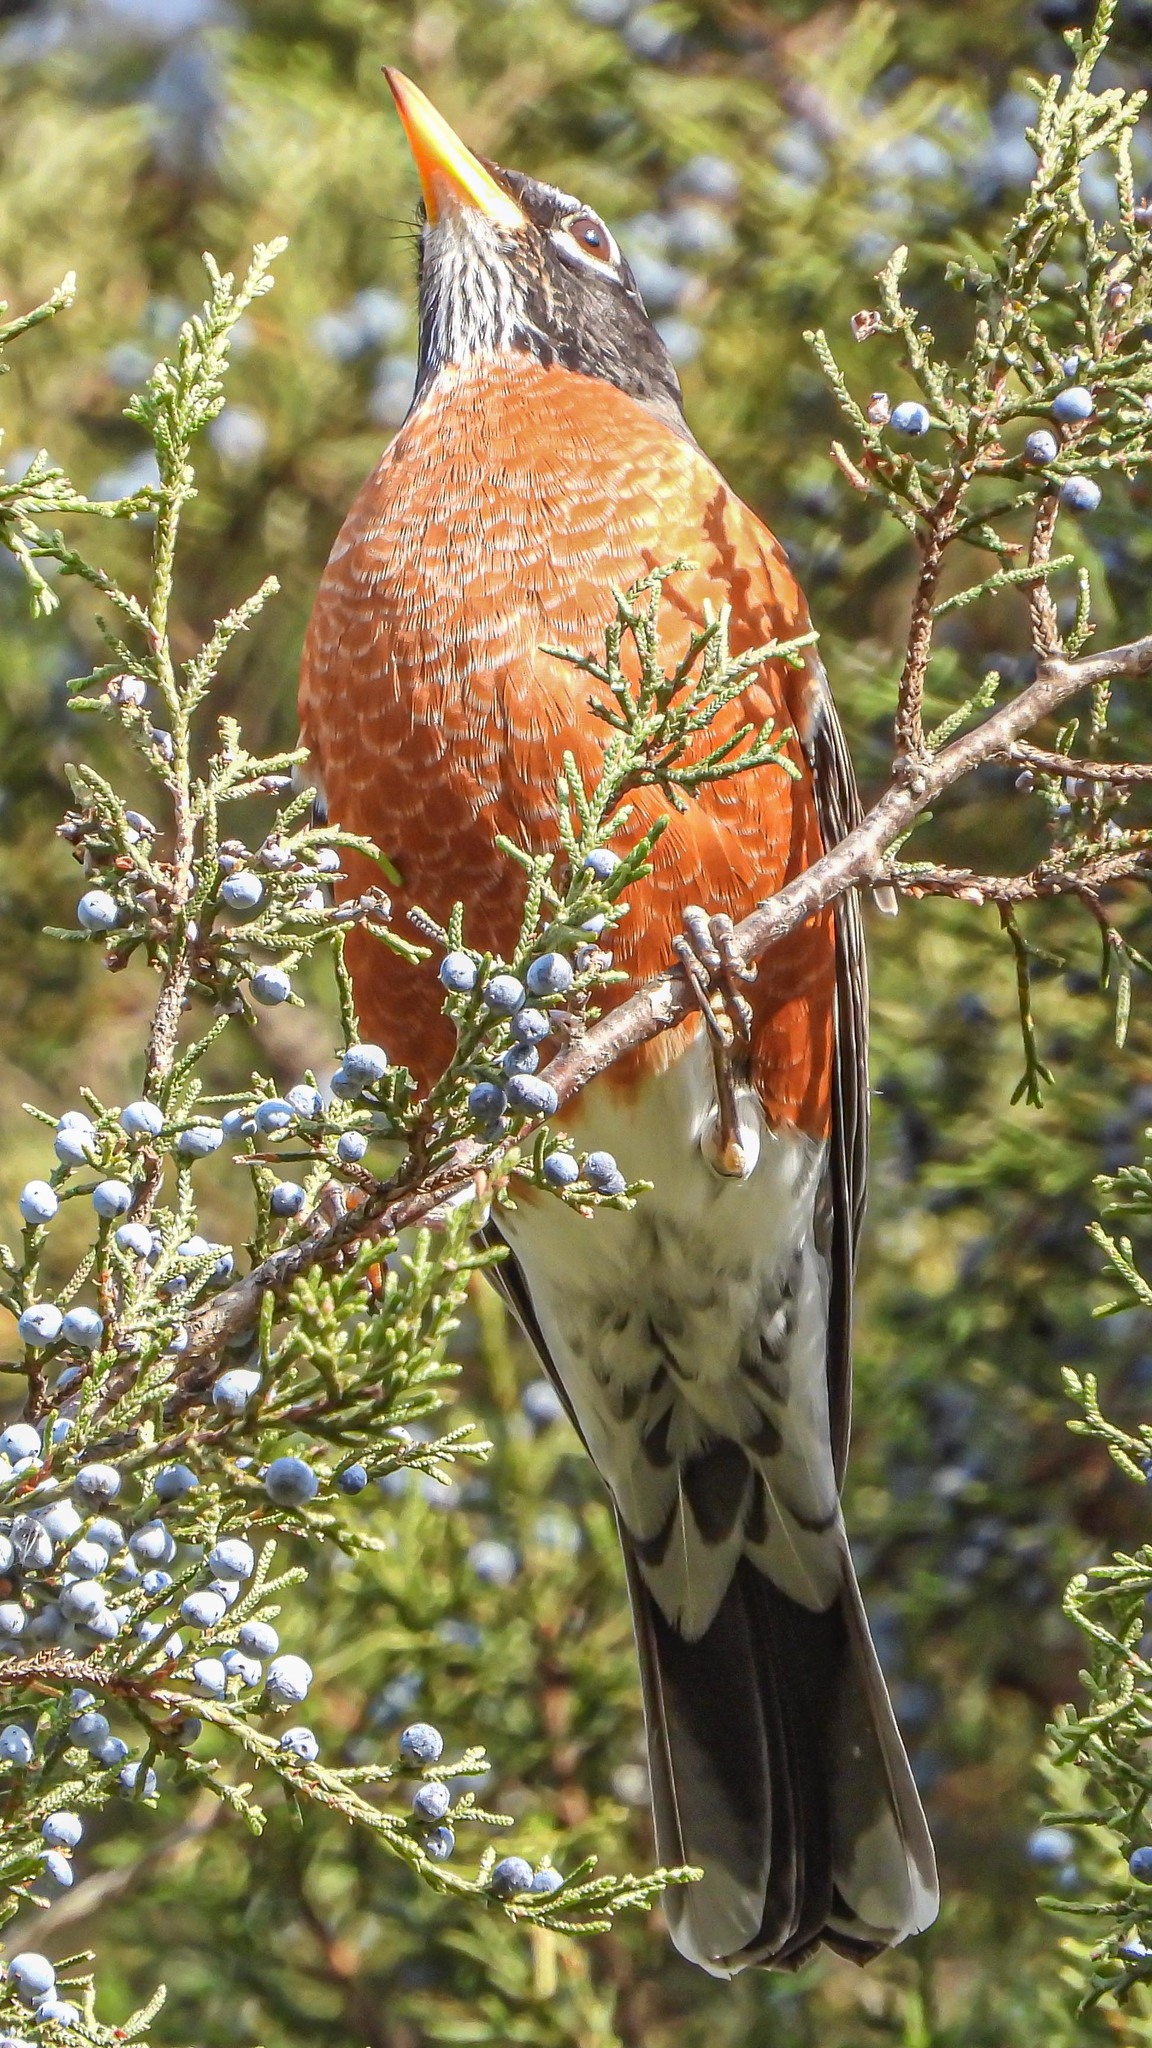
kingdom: Animalia
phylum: Chordata
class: Aves
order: Passeriformes
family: Turdidae
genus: Turdus
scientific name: Turdus migratorius
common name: American robin
